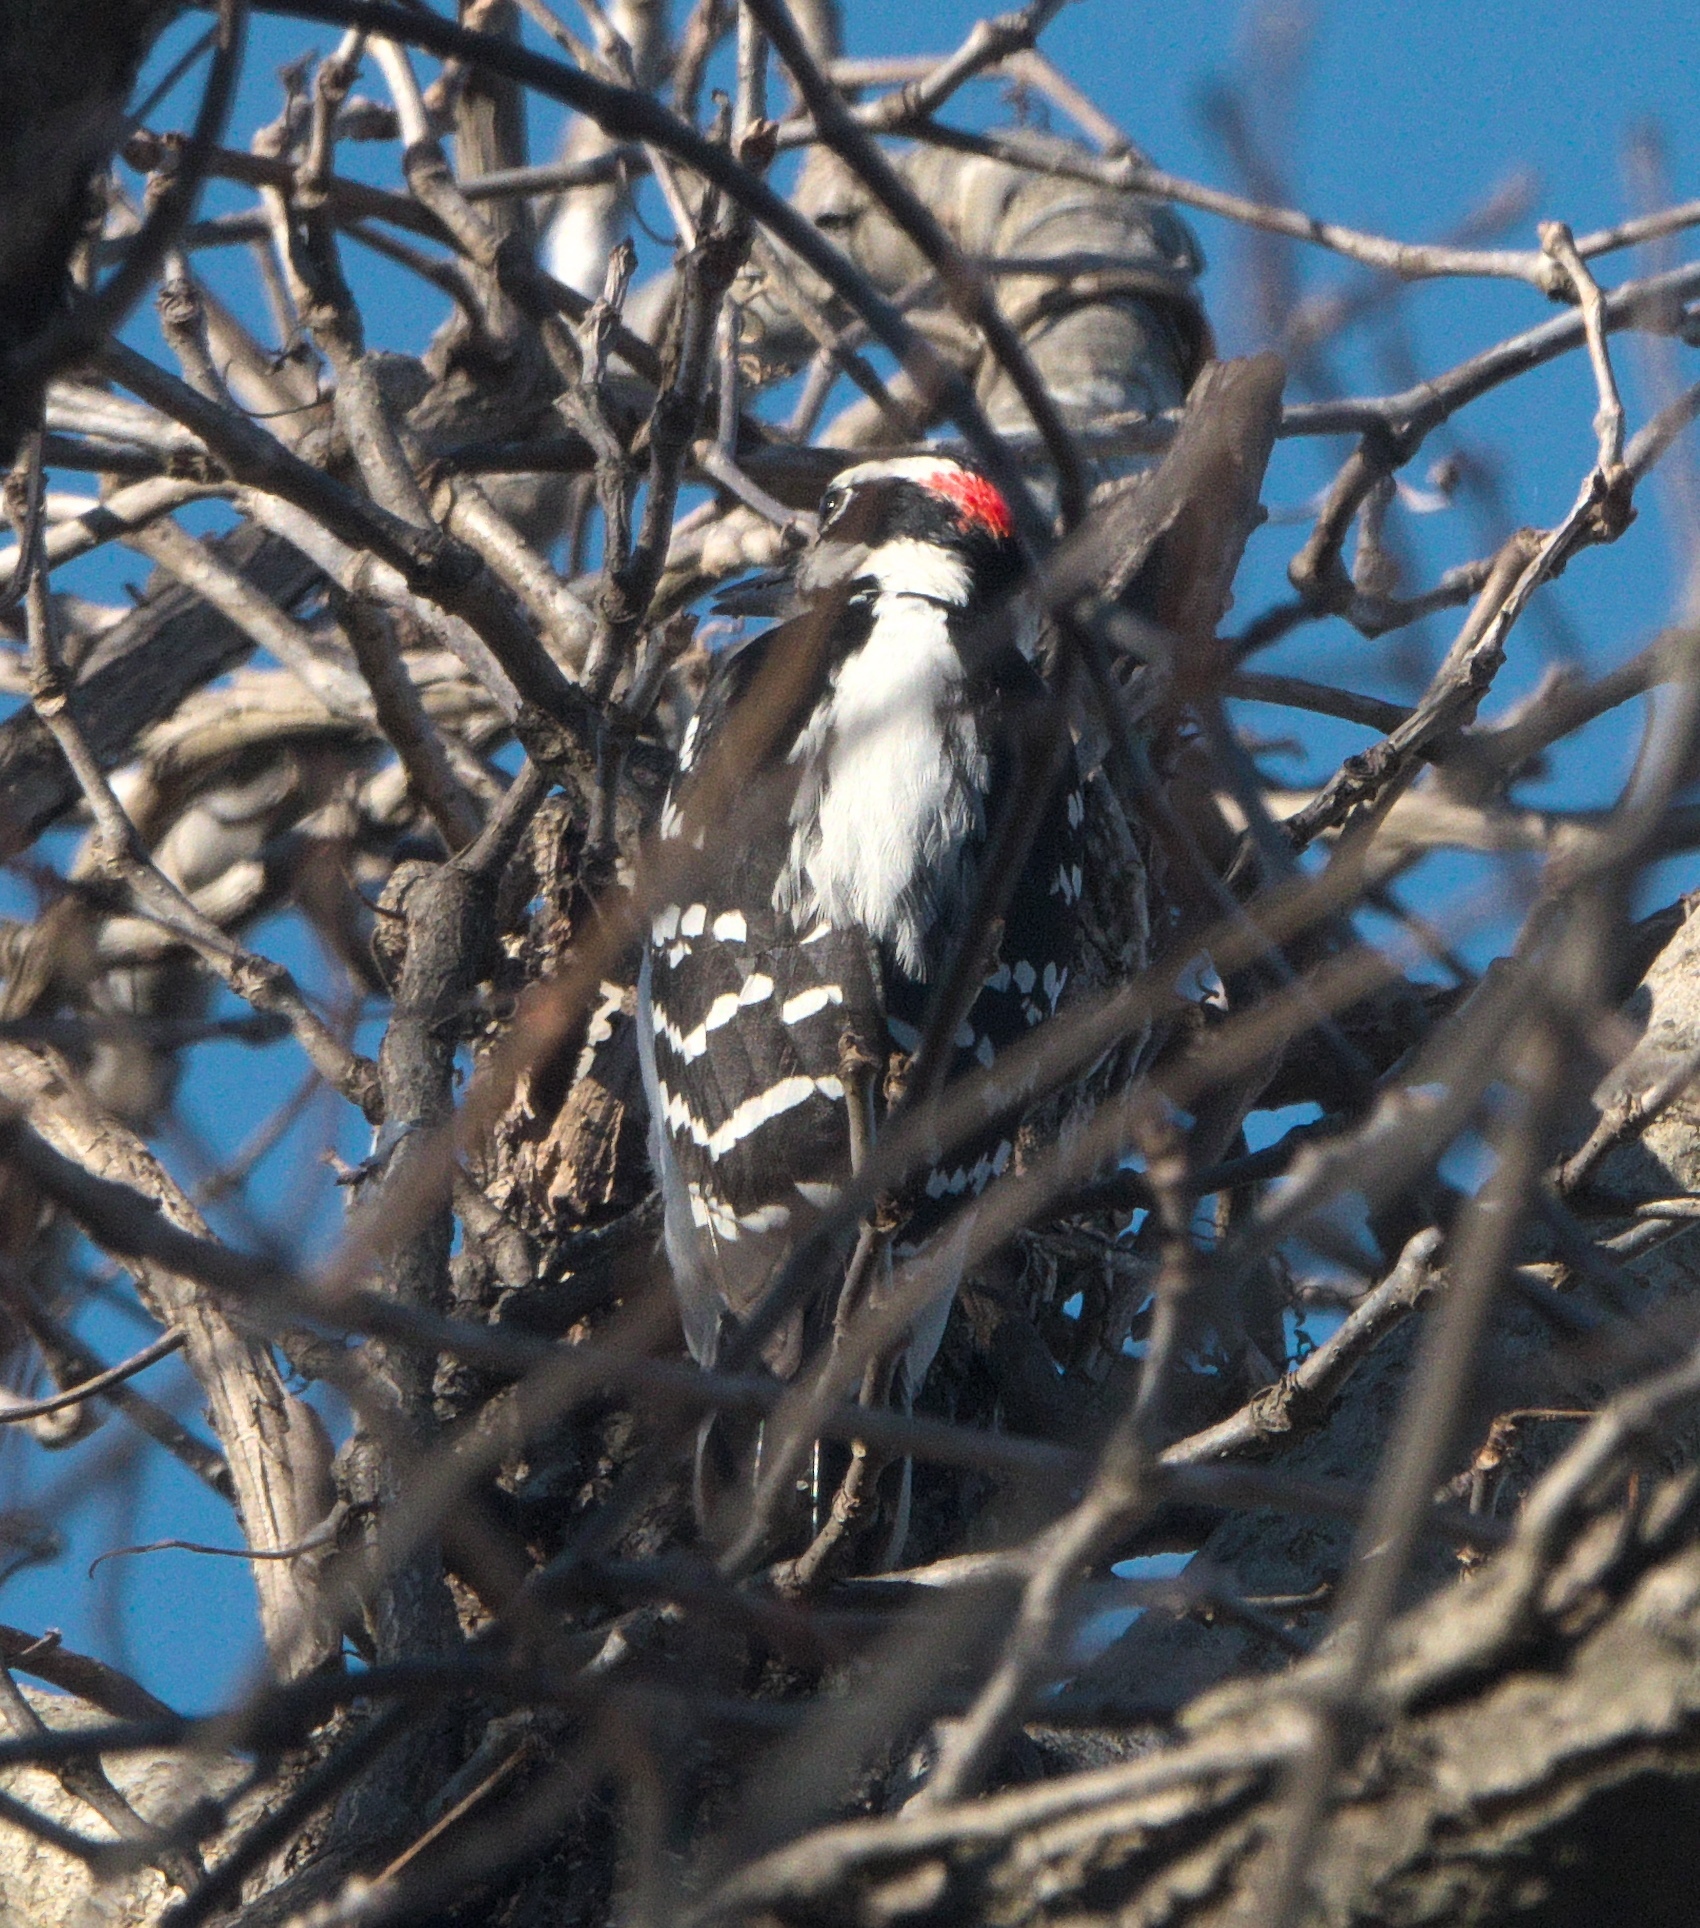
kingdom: Animalia
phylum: Chordata
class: Aves
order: Piciformes
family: Picidae
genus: Leuconotopicus
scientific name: Leuconotopicus villosus
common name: Hairy woodpecker
